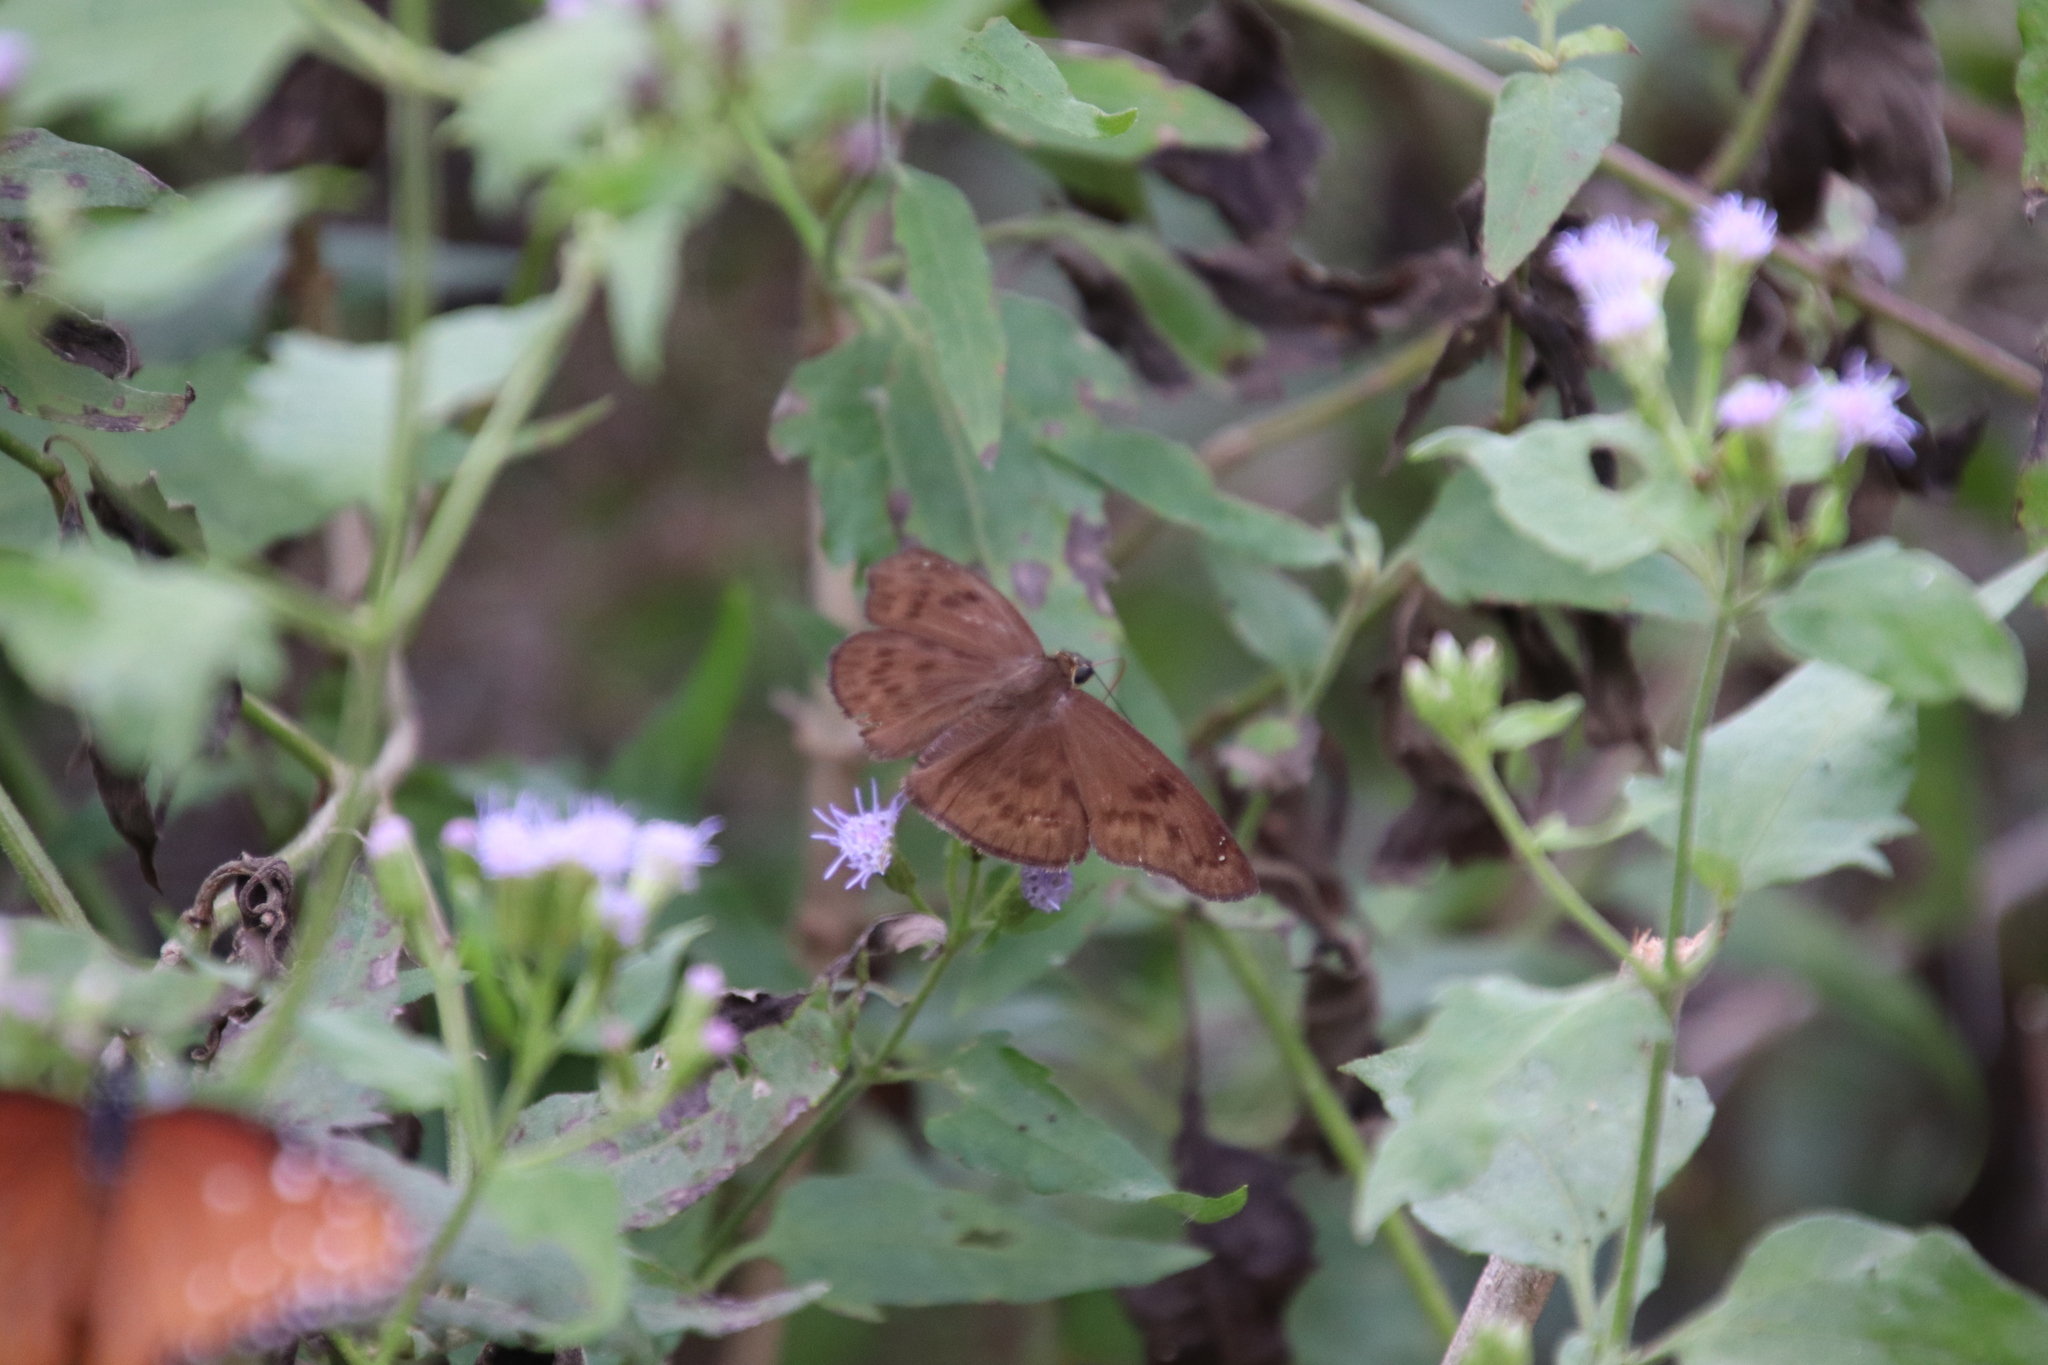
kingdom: Animalia
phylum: Arthropoda
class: Insecta
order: Lepidoptera
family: Hesperiidae
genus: Grais
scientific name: Grais stigmaticus
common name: Hermit skipper
